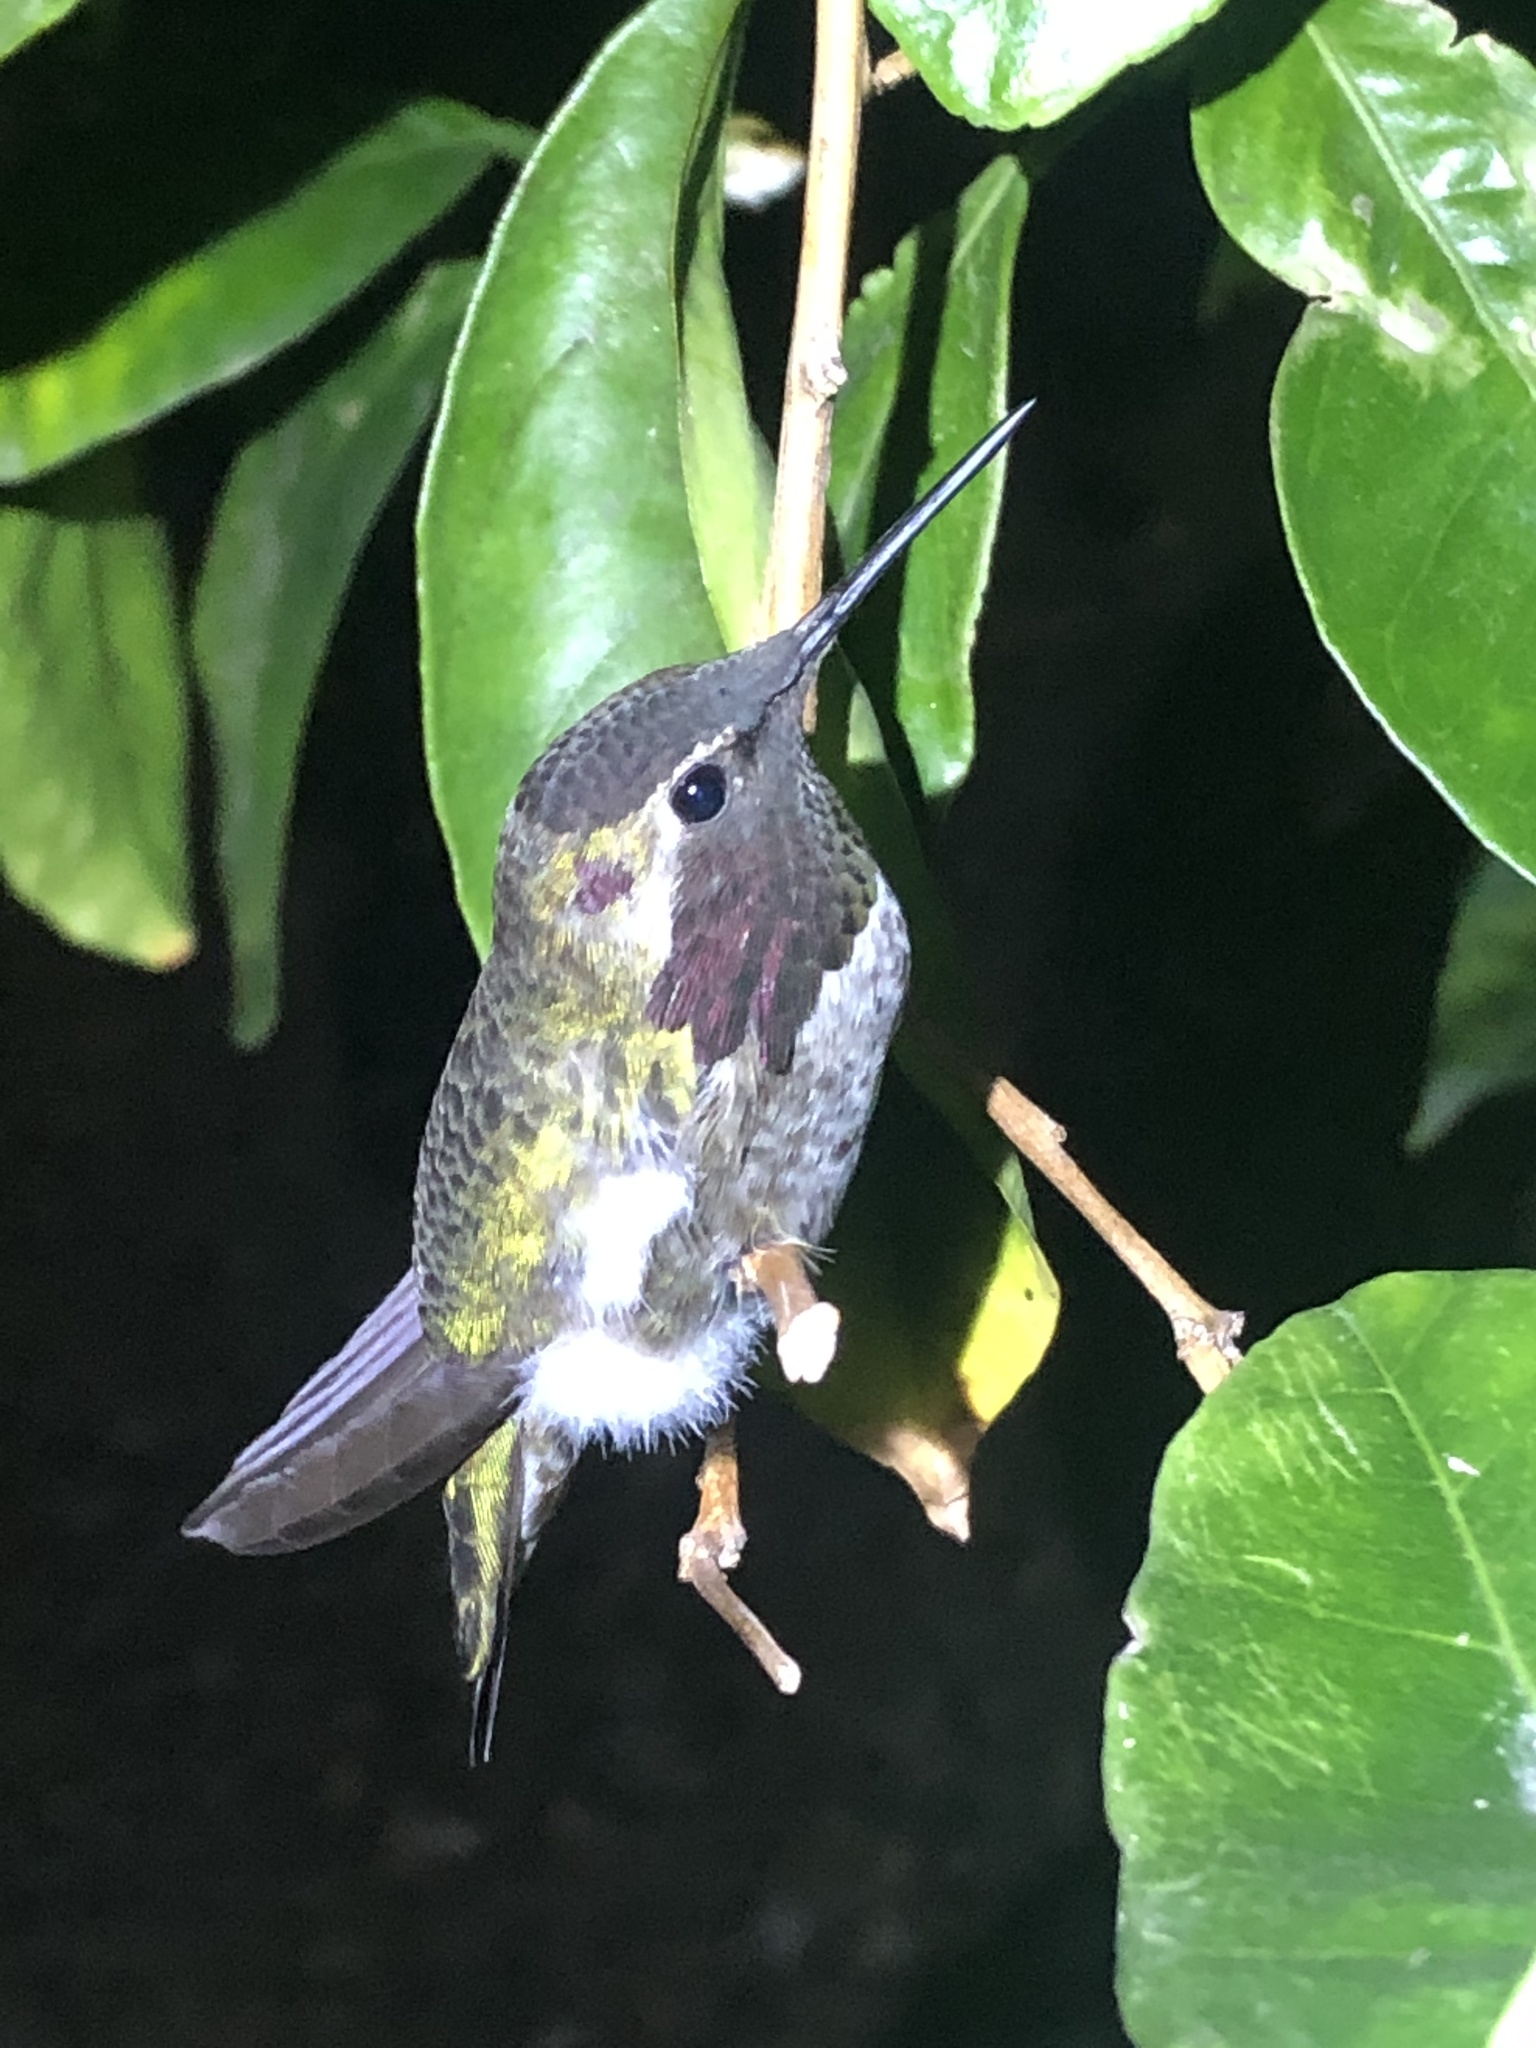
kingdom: Animalia
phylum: Chordata
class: Aves
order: Apodiformes
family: Trochilidae
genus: Calypte
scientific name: Calypte anna
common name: Anna's hummingbird
